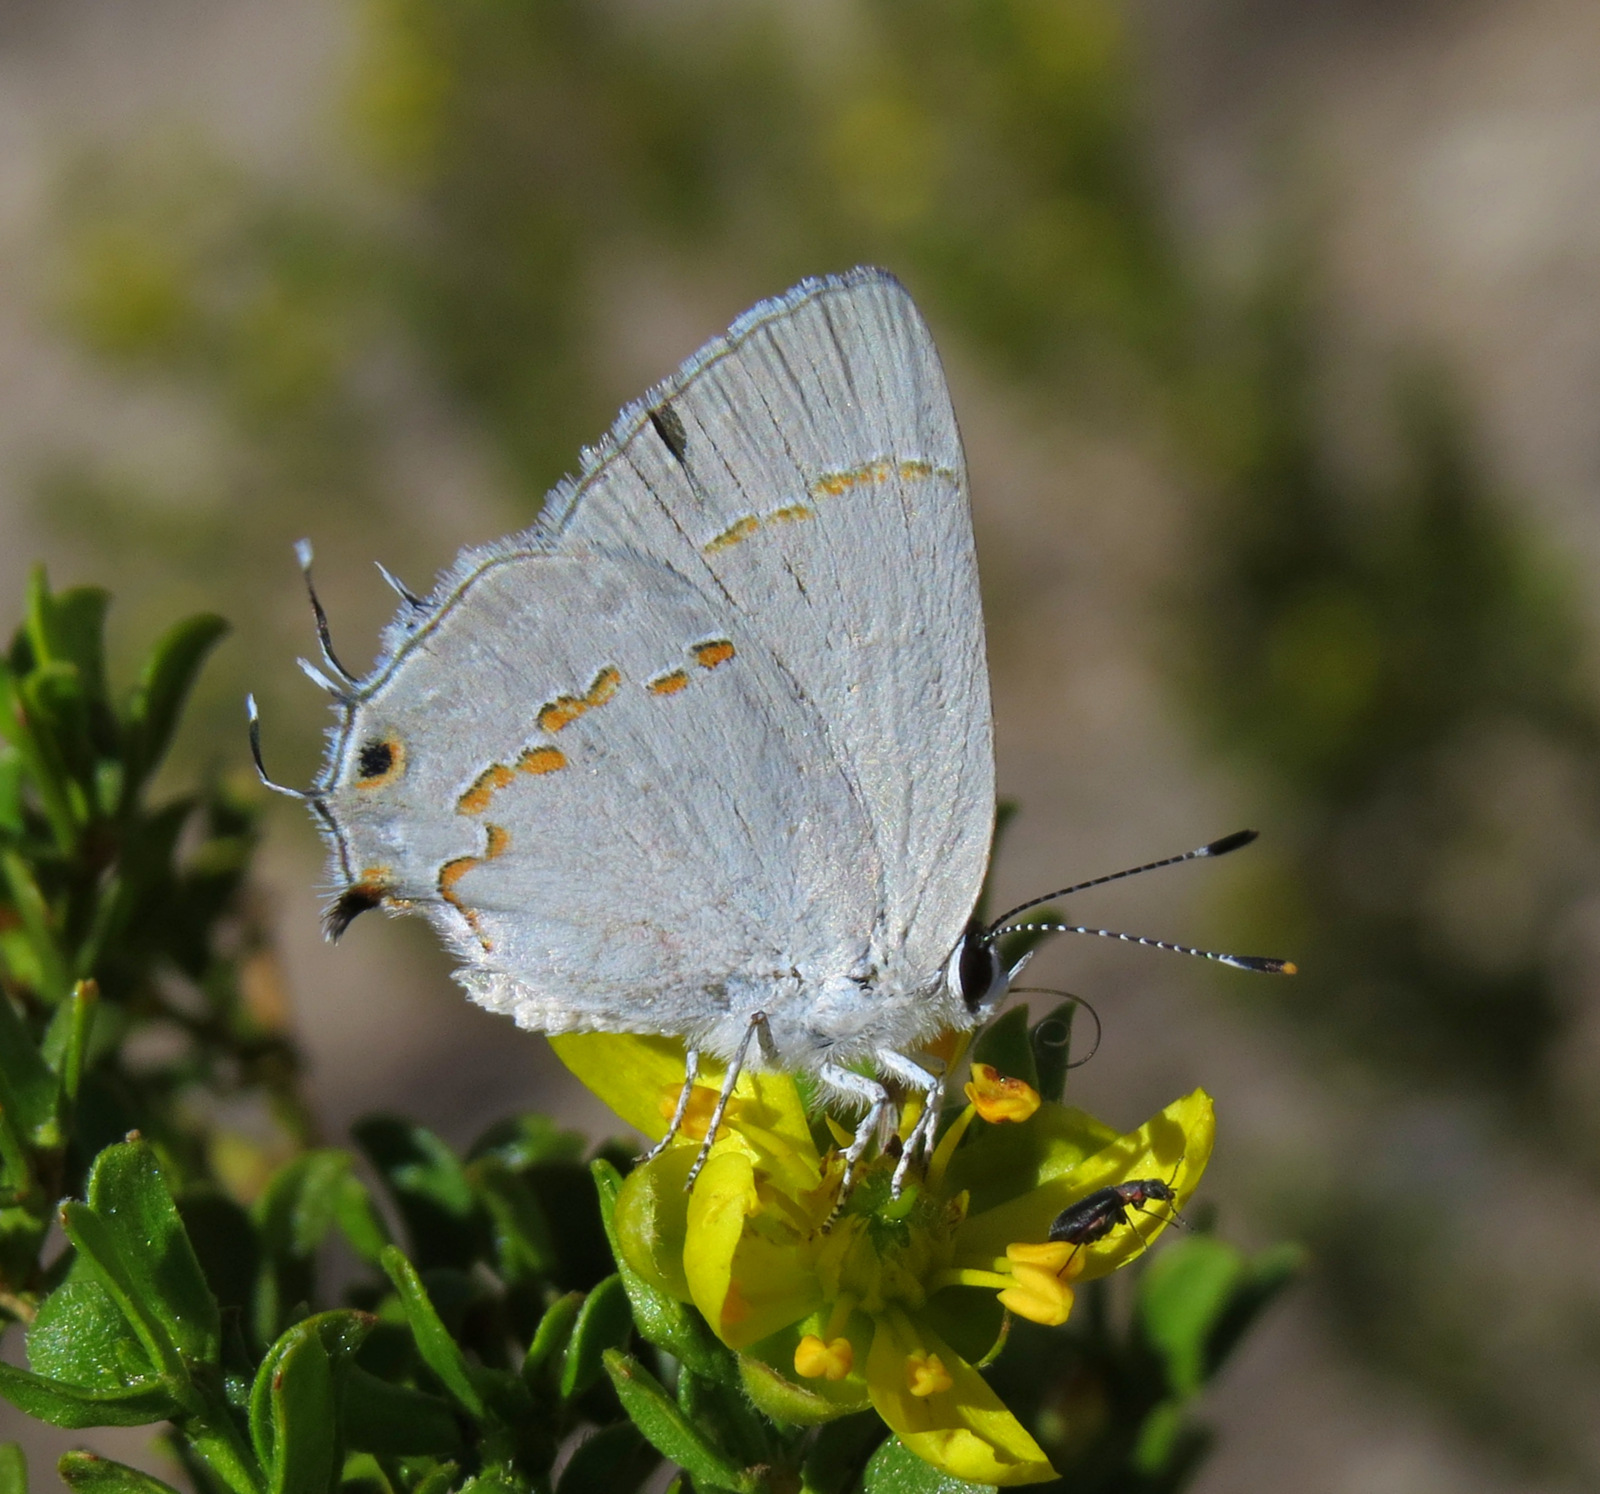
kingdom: Animalia
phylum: Arthropoda
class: Insecta
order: Lepidoptera
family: Lycaenidae
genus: Strymon
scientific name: Strymon
